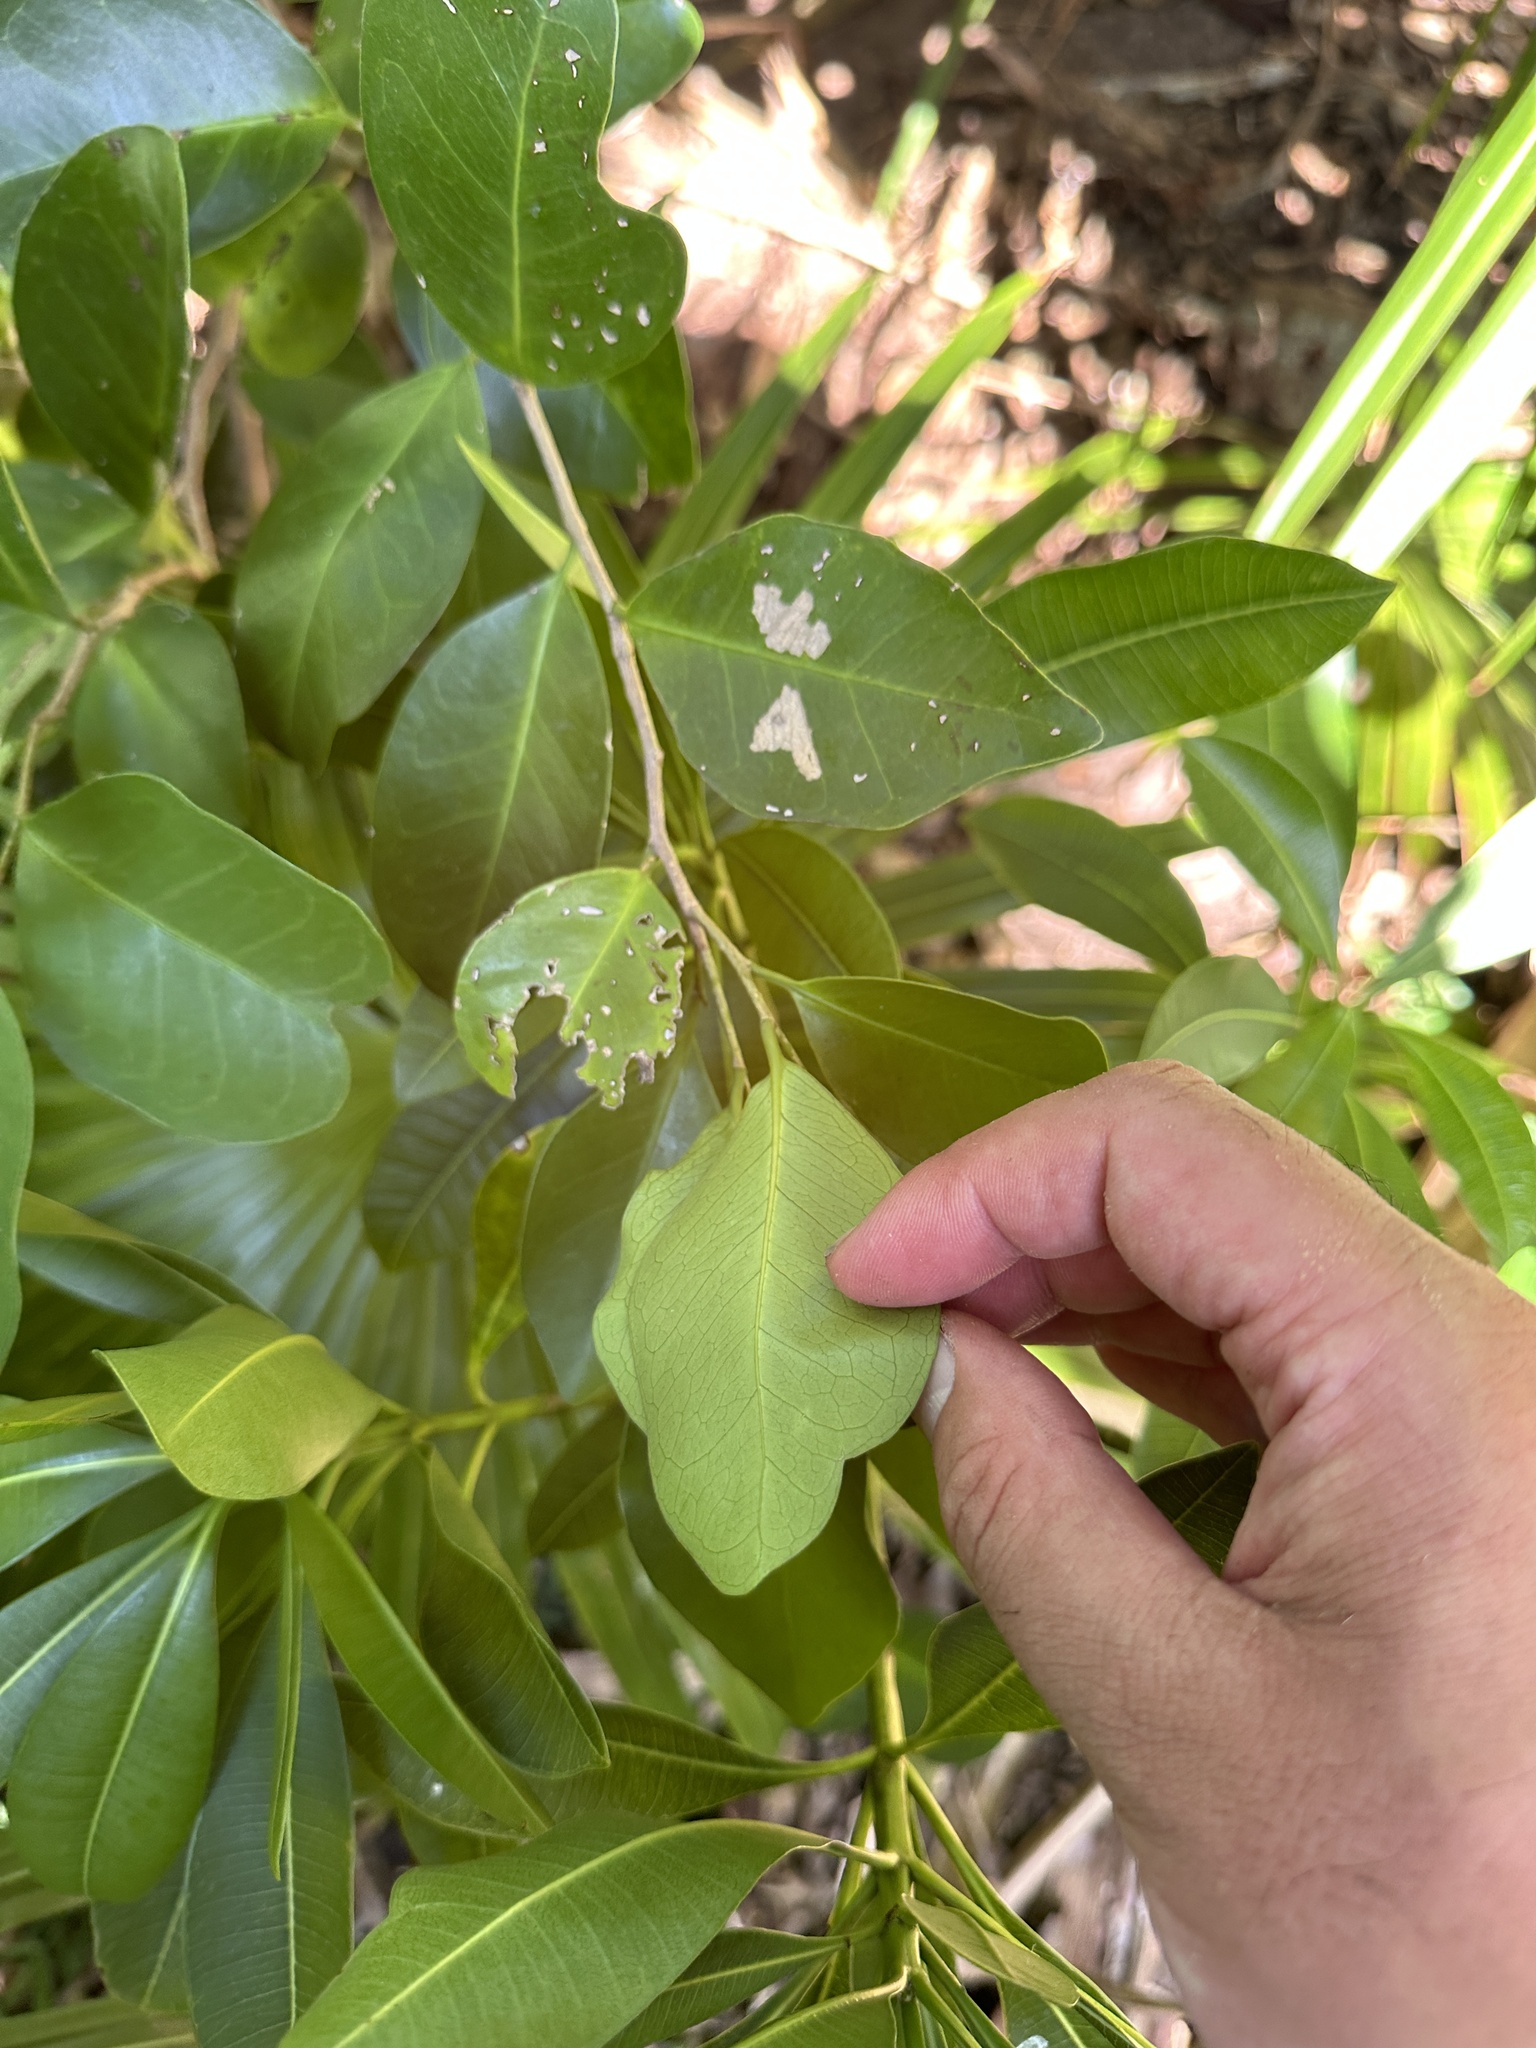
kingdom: Plantae
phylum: Tracheophyta
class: Magnoliopsida
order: Malpighiales
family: Putranjivaceae
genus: Drypetes
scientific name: Drypetes integerrima
